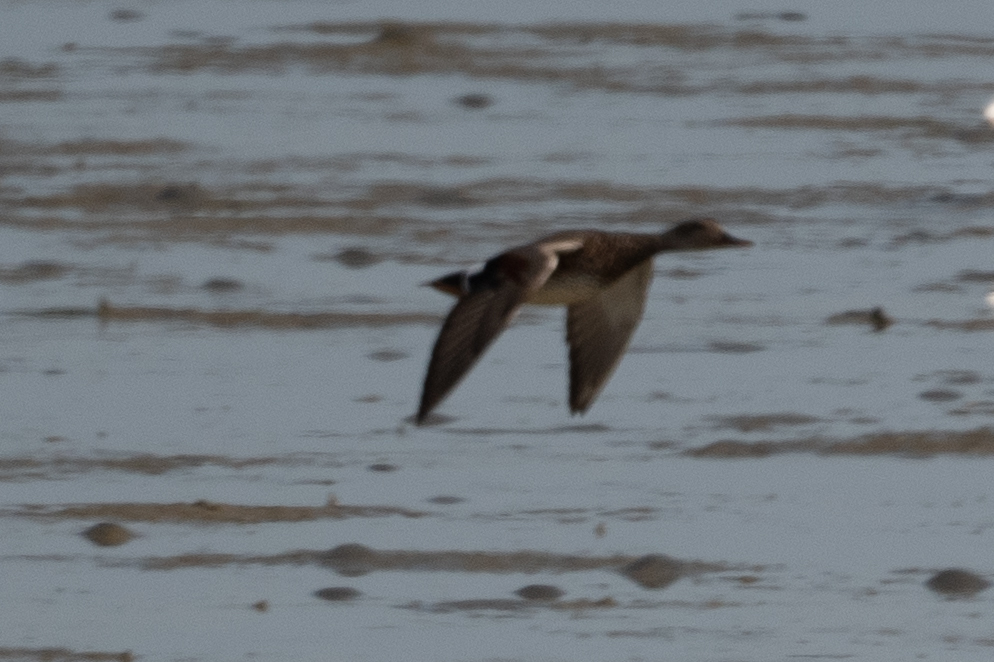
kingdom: Animalia
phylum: Chordata
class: Aves
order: Anseriformes
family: Anatidae
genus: Mareca
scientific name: Mareca strepera
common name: Gadwall
